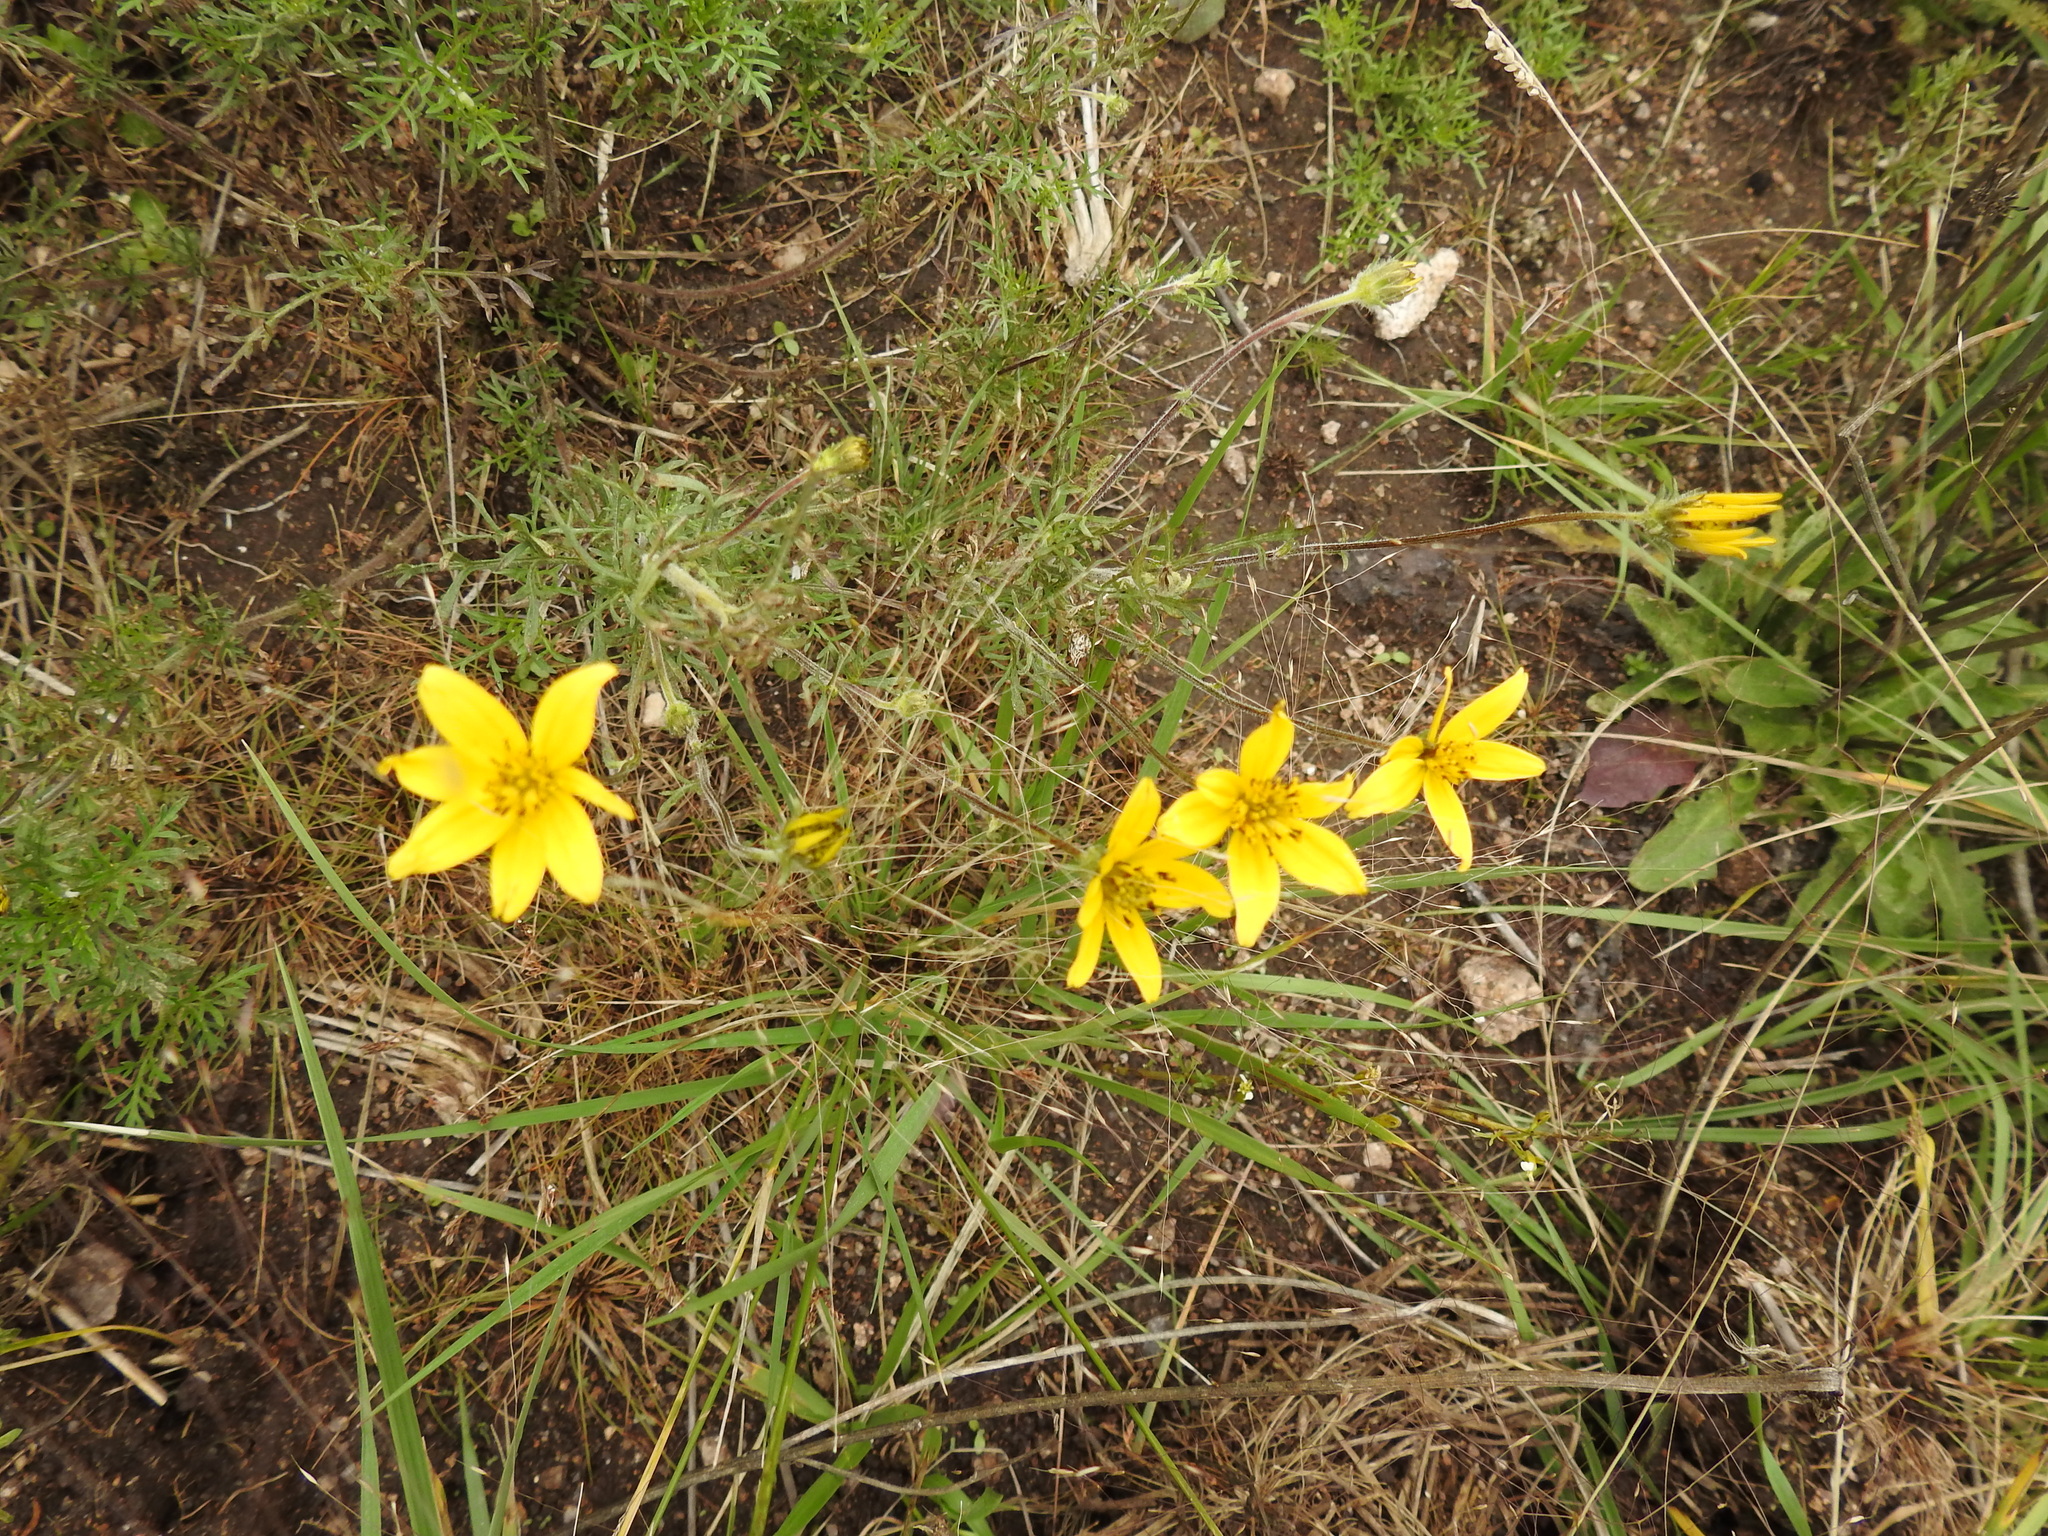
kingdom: Plantae
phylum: Tracheophyta
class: Magnoliopsida
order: Asterales
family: Asteraceae
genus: Bidens
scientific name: Bidens triplinervia
